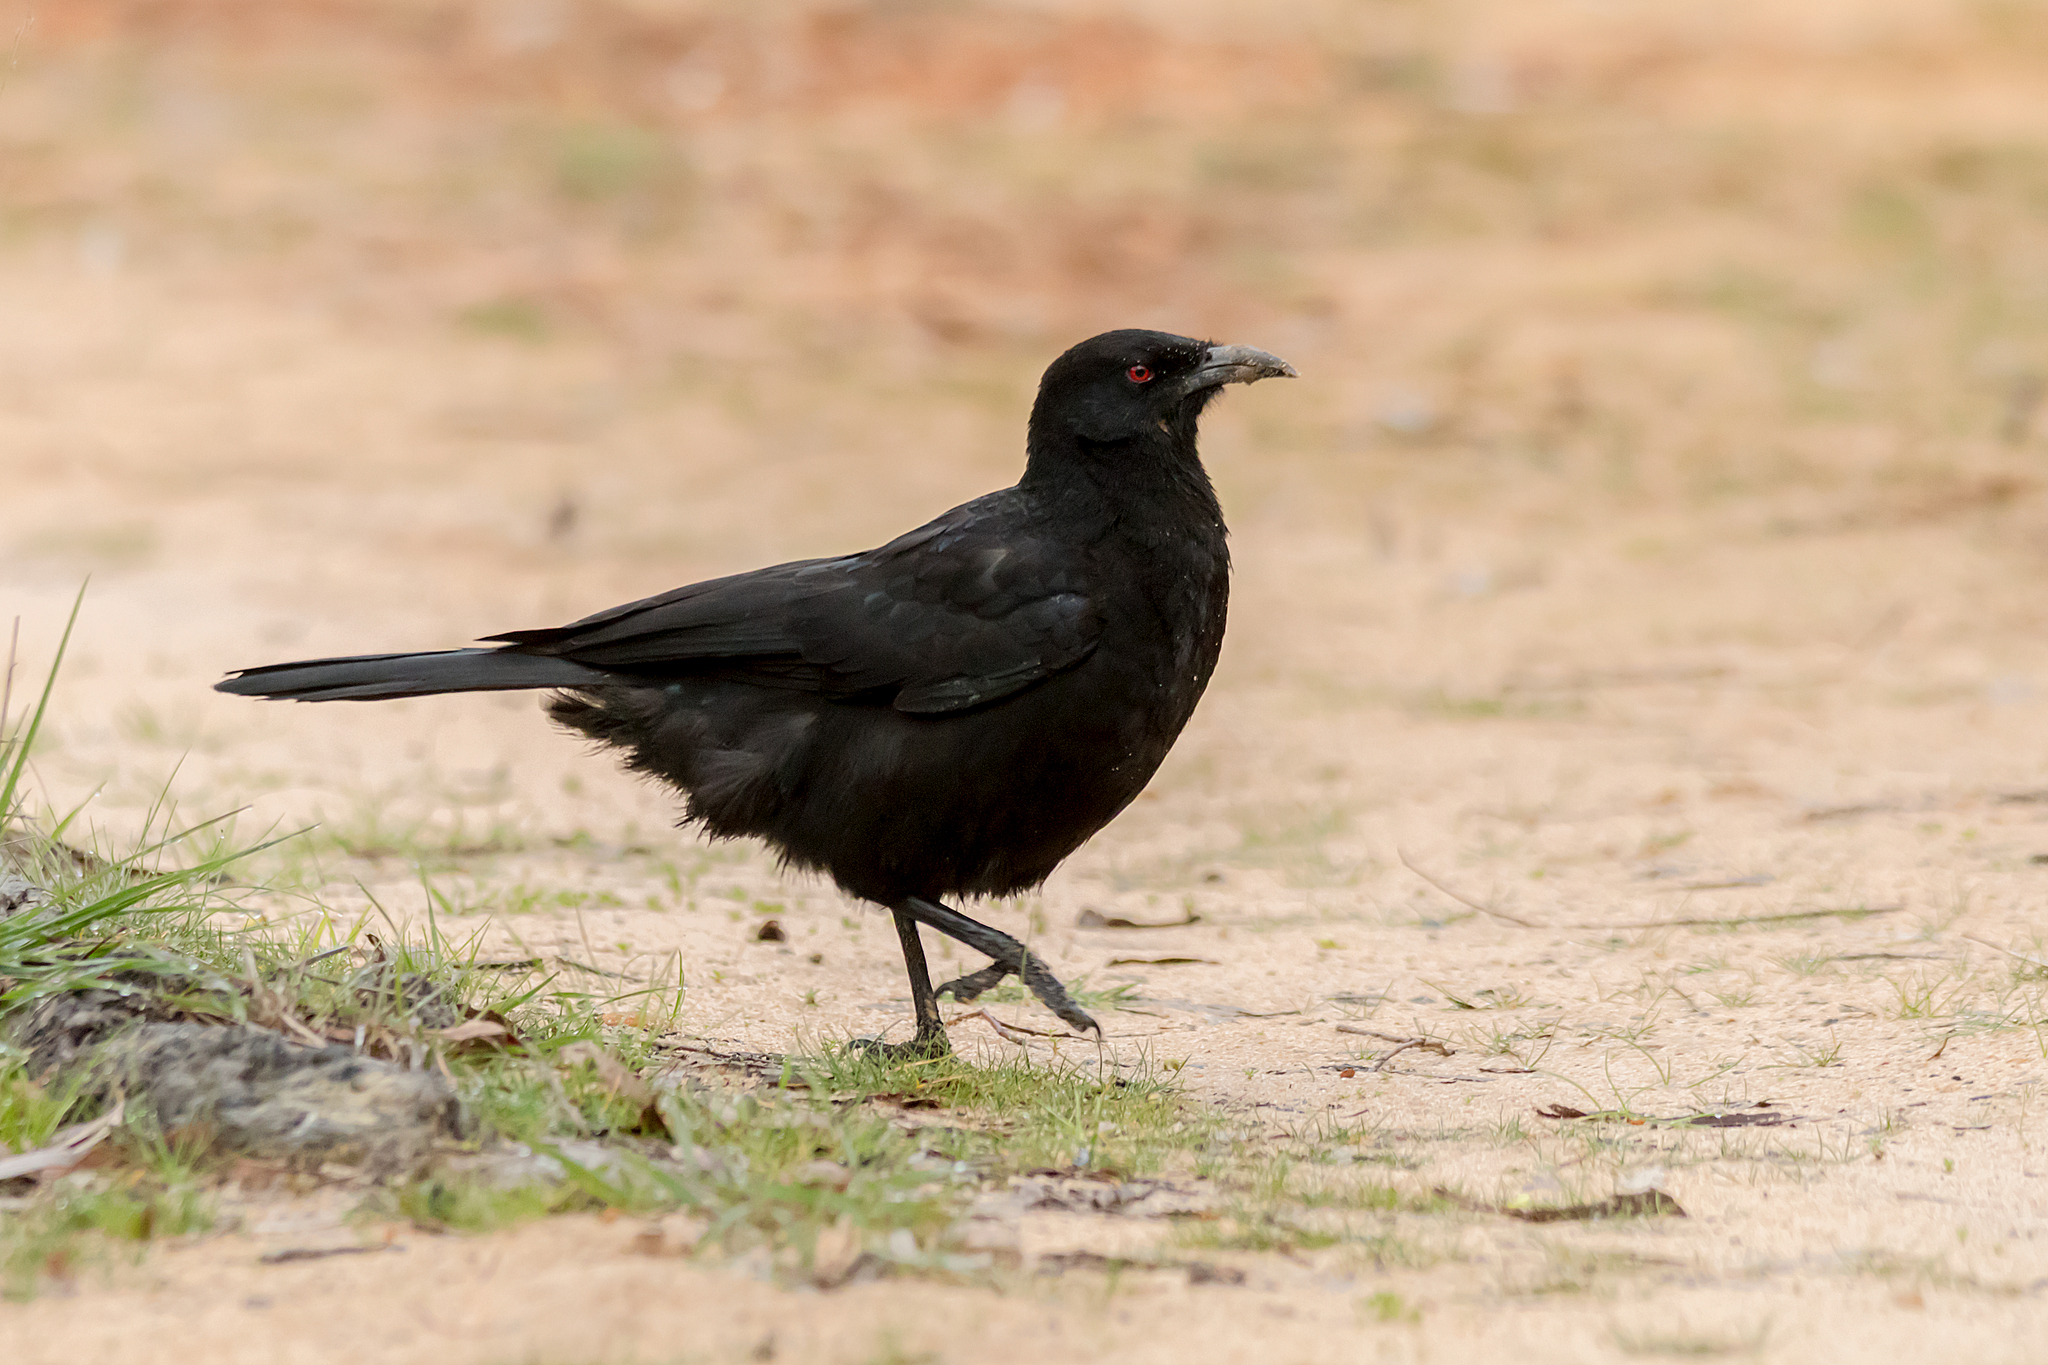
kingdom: Animalia
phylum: Chordata
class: Aves
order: Passeriformes
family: Corcoracidae
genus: Corcorax
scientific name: Corcorax melanoramphos
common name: White-winged chough
